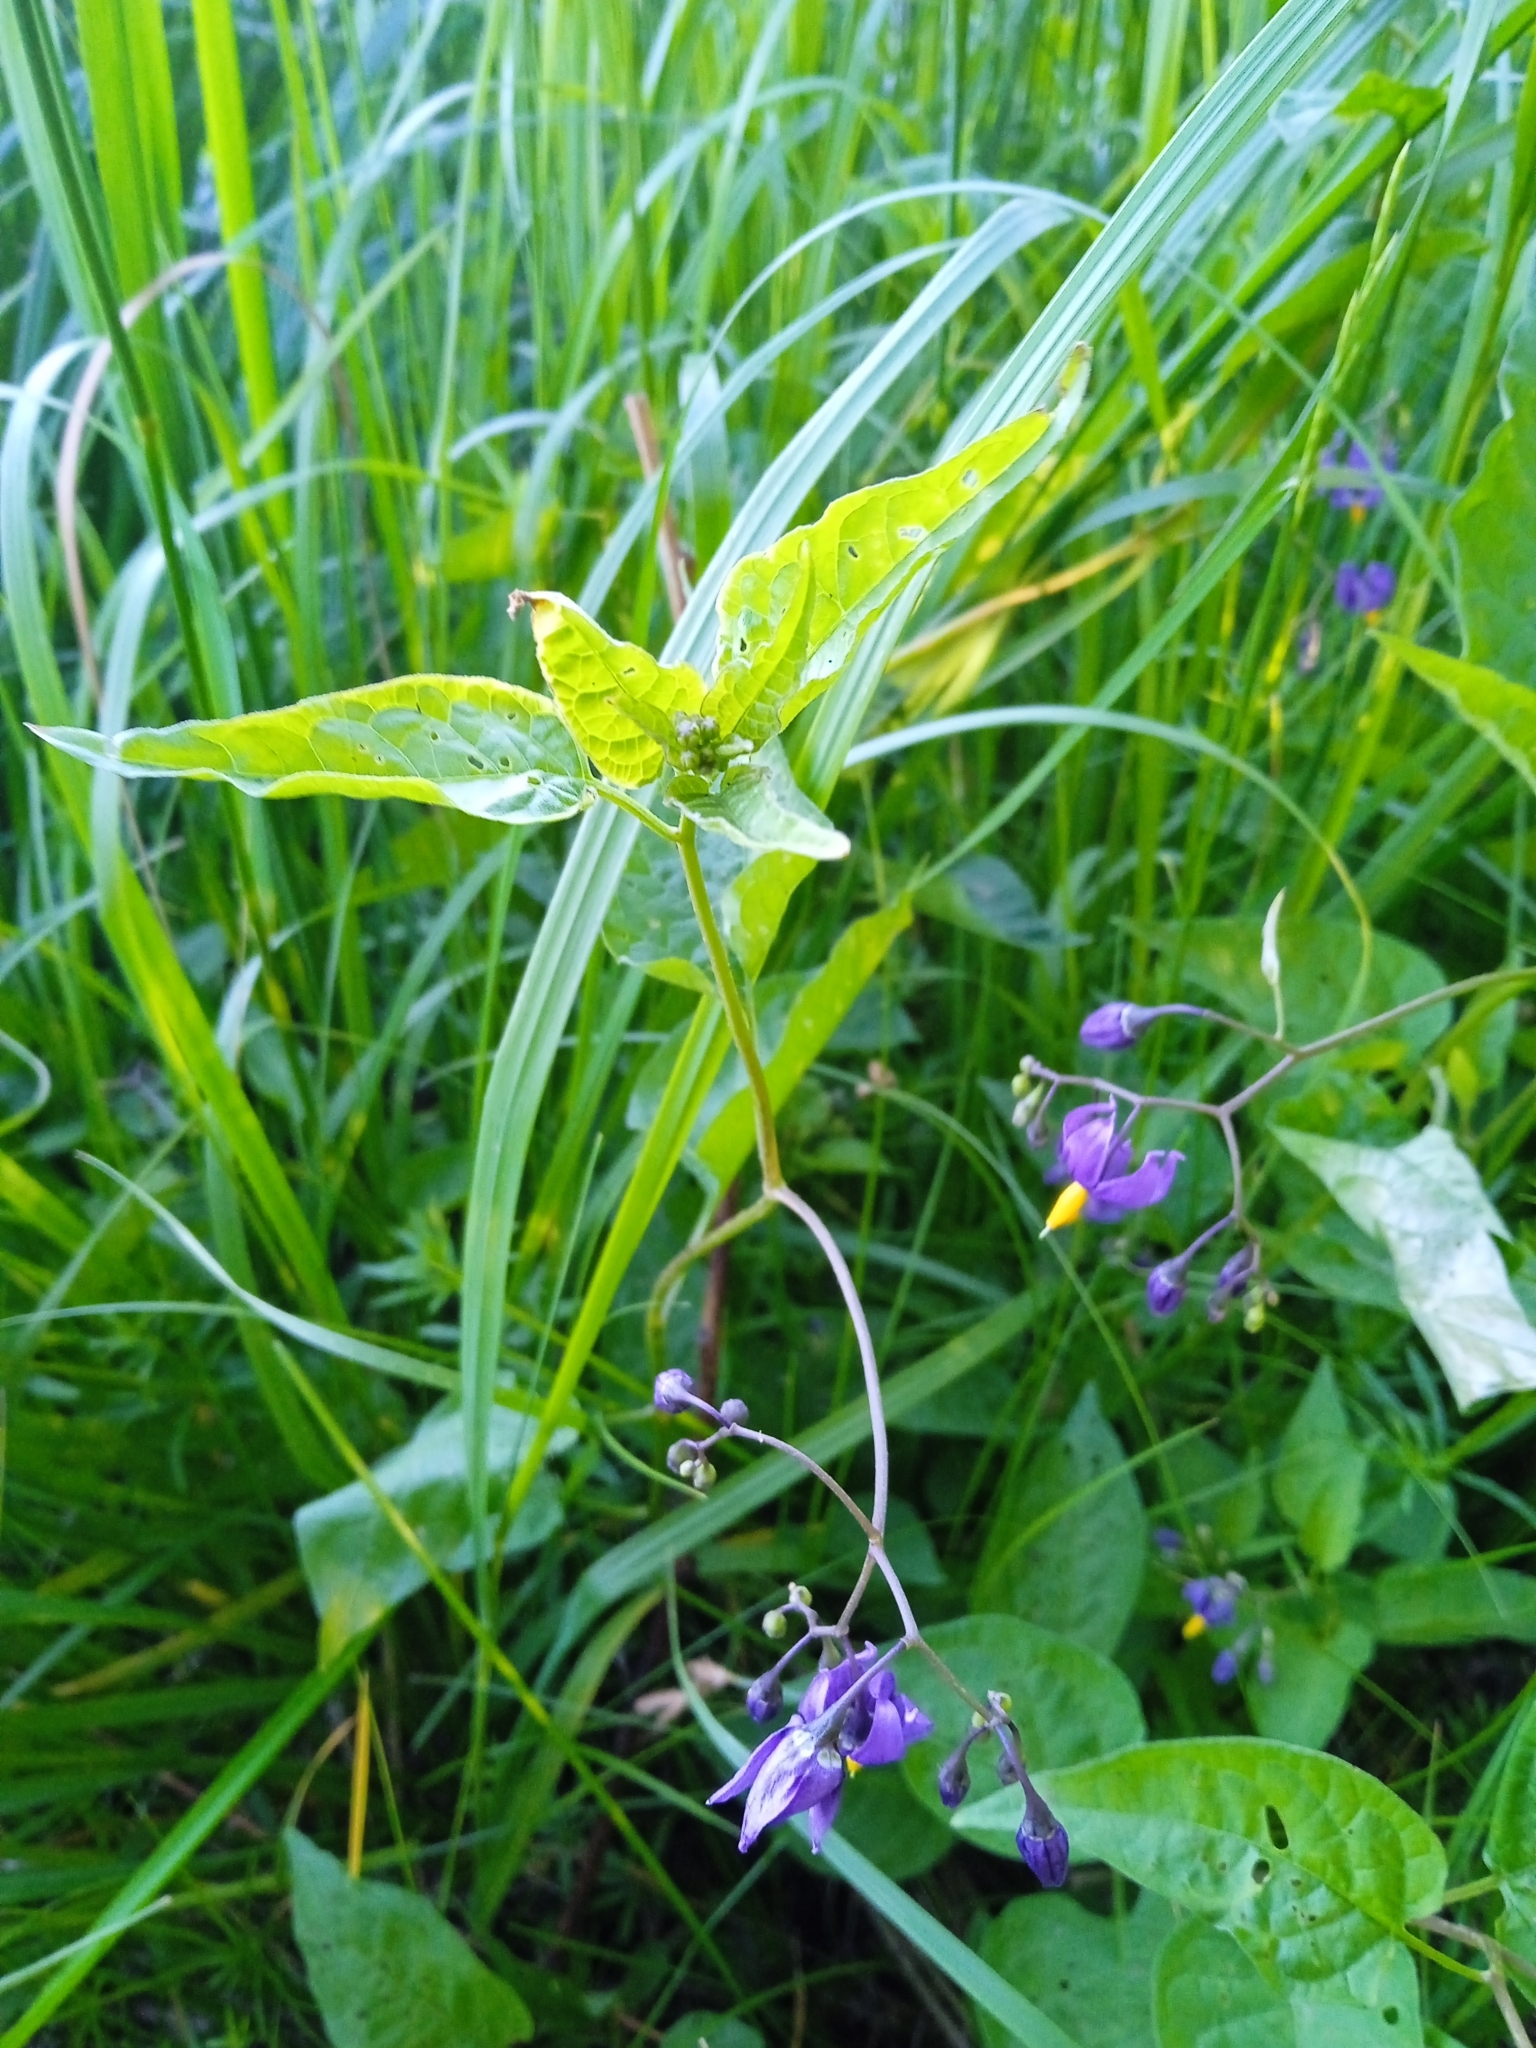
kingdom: Plantae
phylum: Tracheophyta
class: Magnoliopsida
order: Solanales
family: Solanaceae
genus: Solanum
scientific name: Solanum dulcamara
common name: Climbing nightshade
